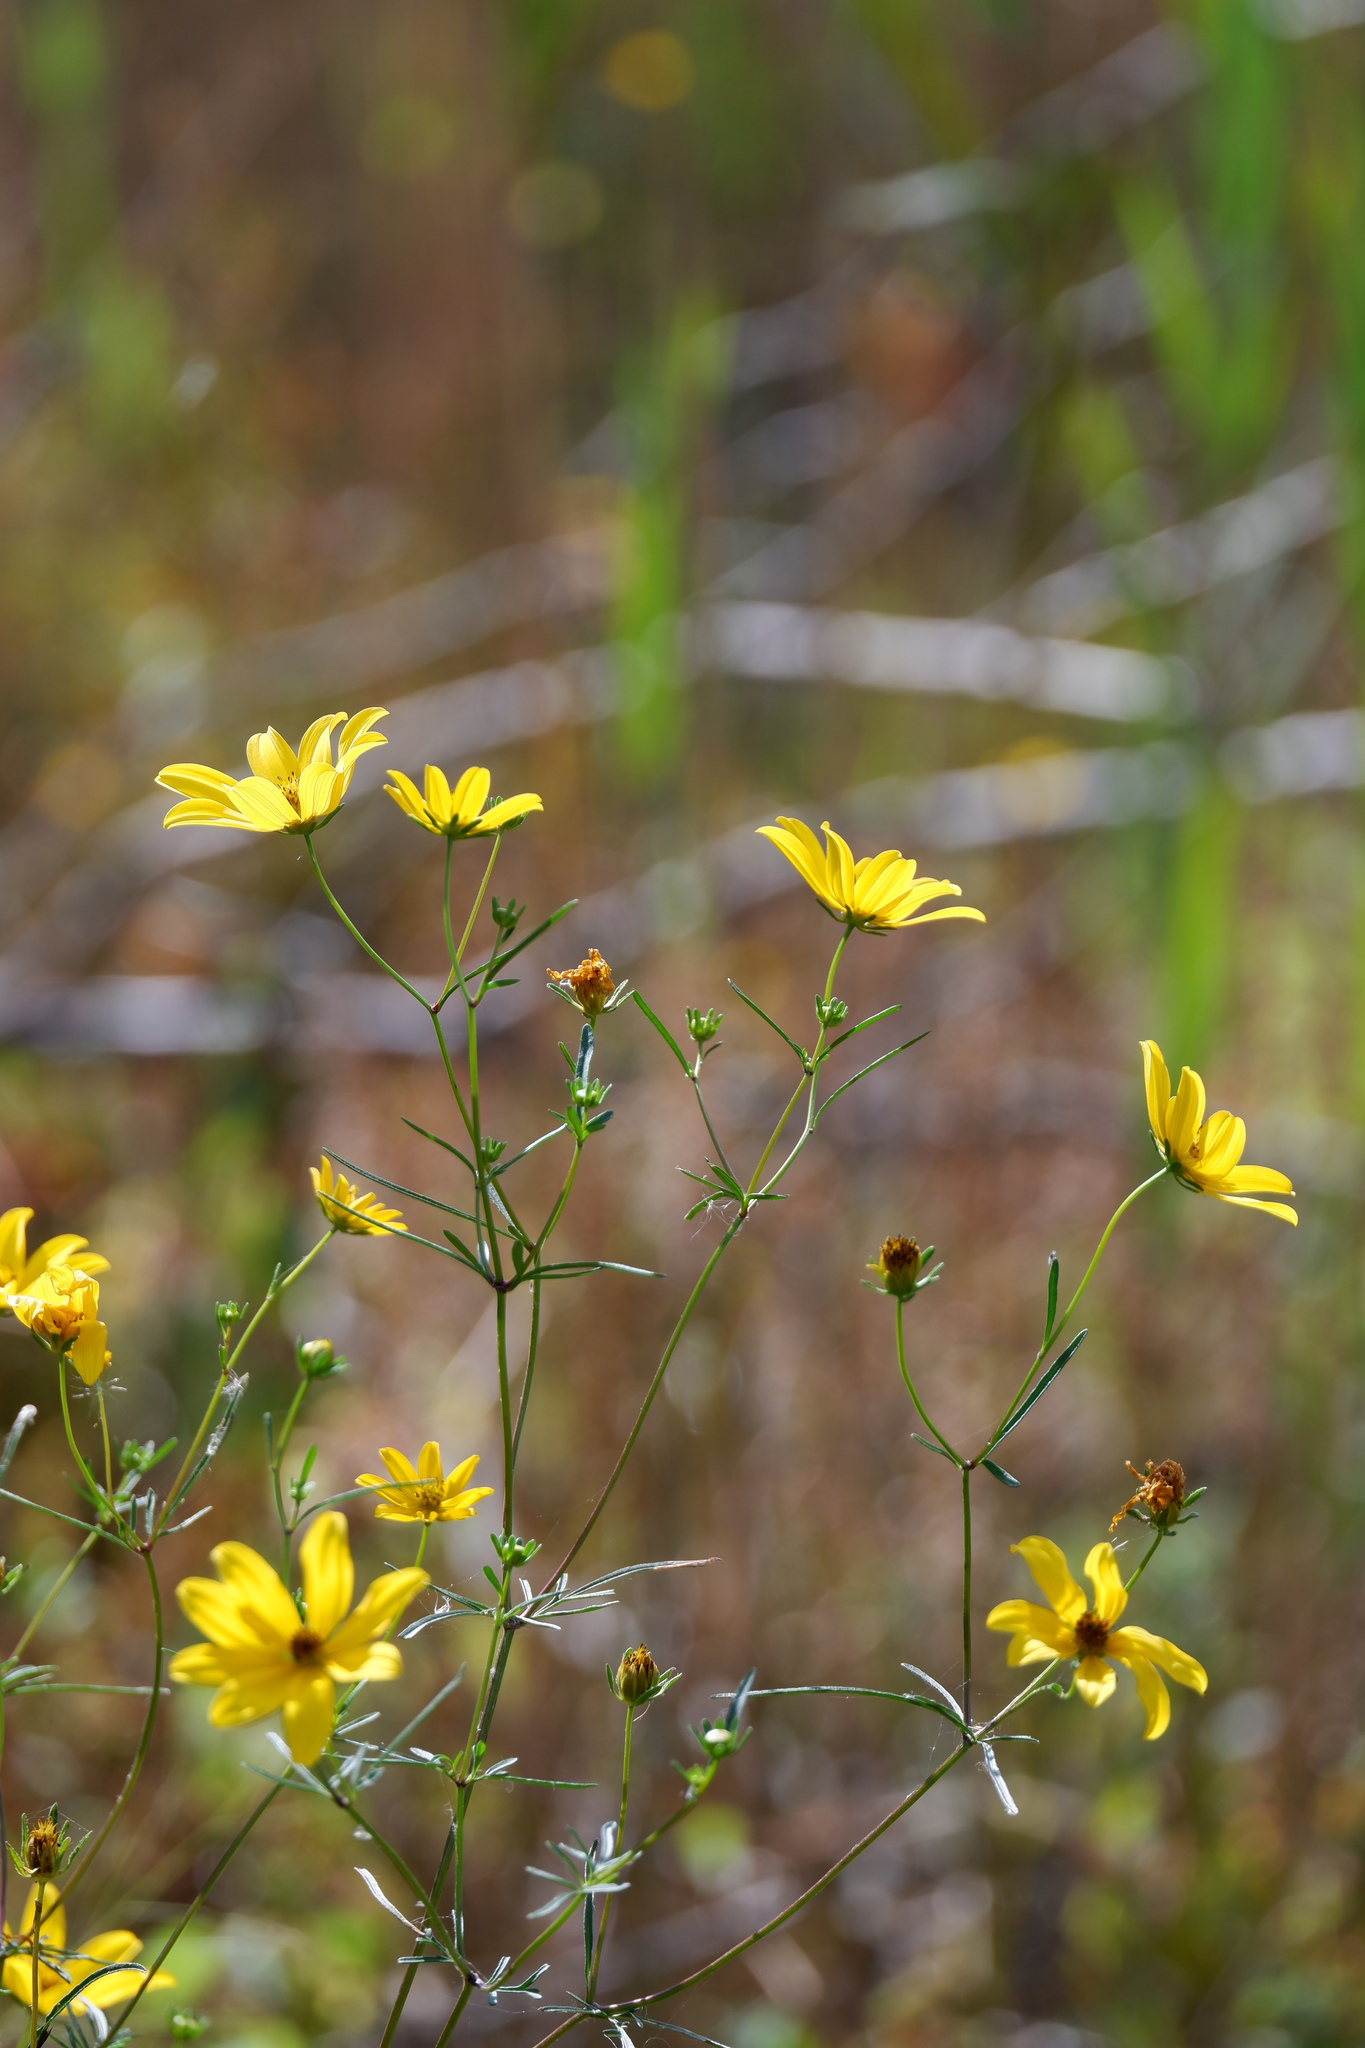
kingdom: Plantae
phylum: Tracheophyta
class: Magnoliopsida
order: Asterales
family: Asteraceae
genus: Bidens
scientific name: Bidens trichosperma
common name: Crowned beggarticks
